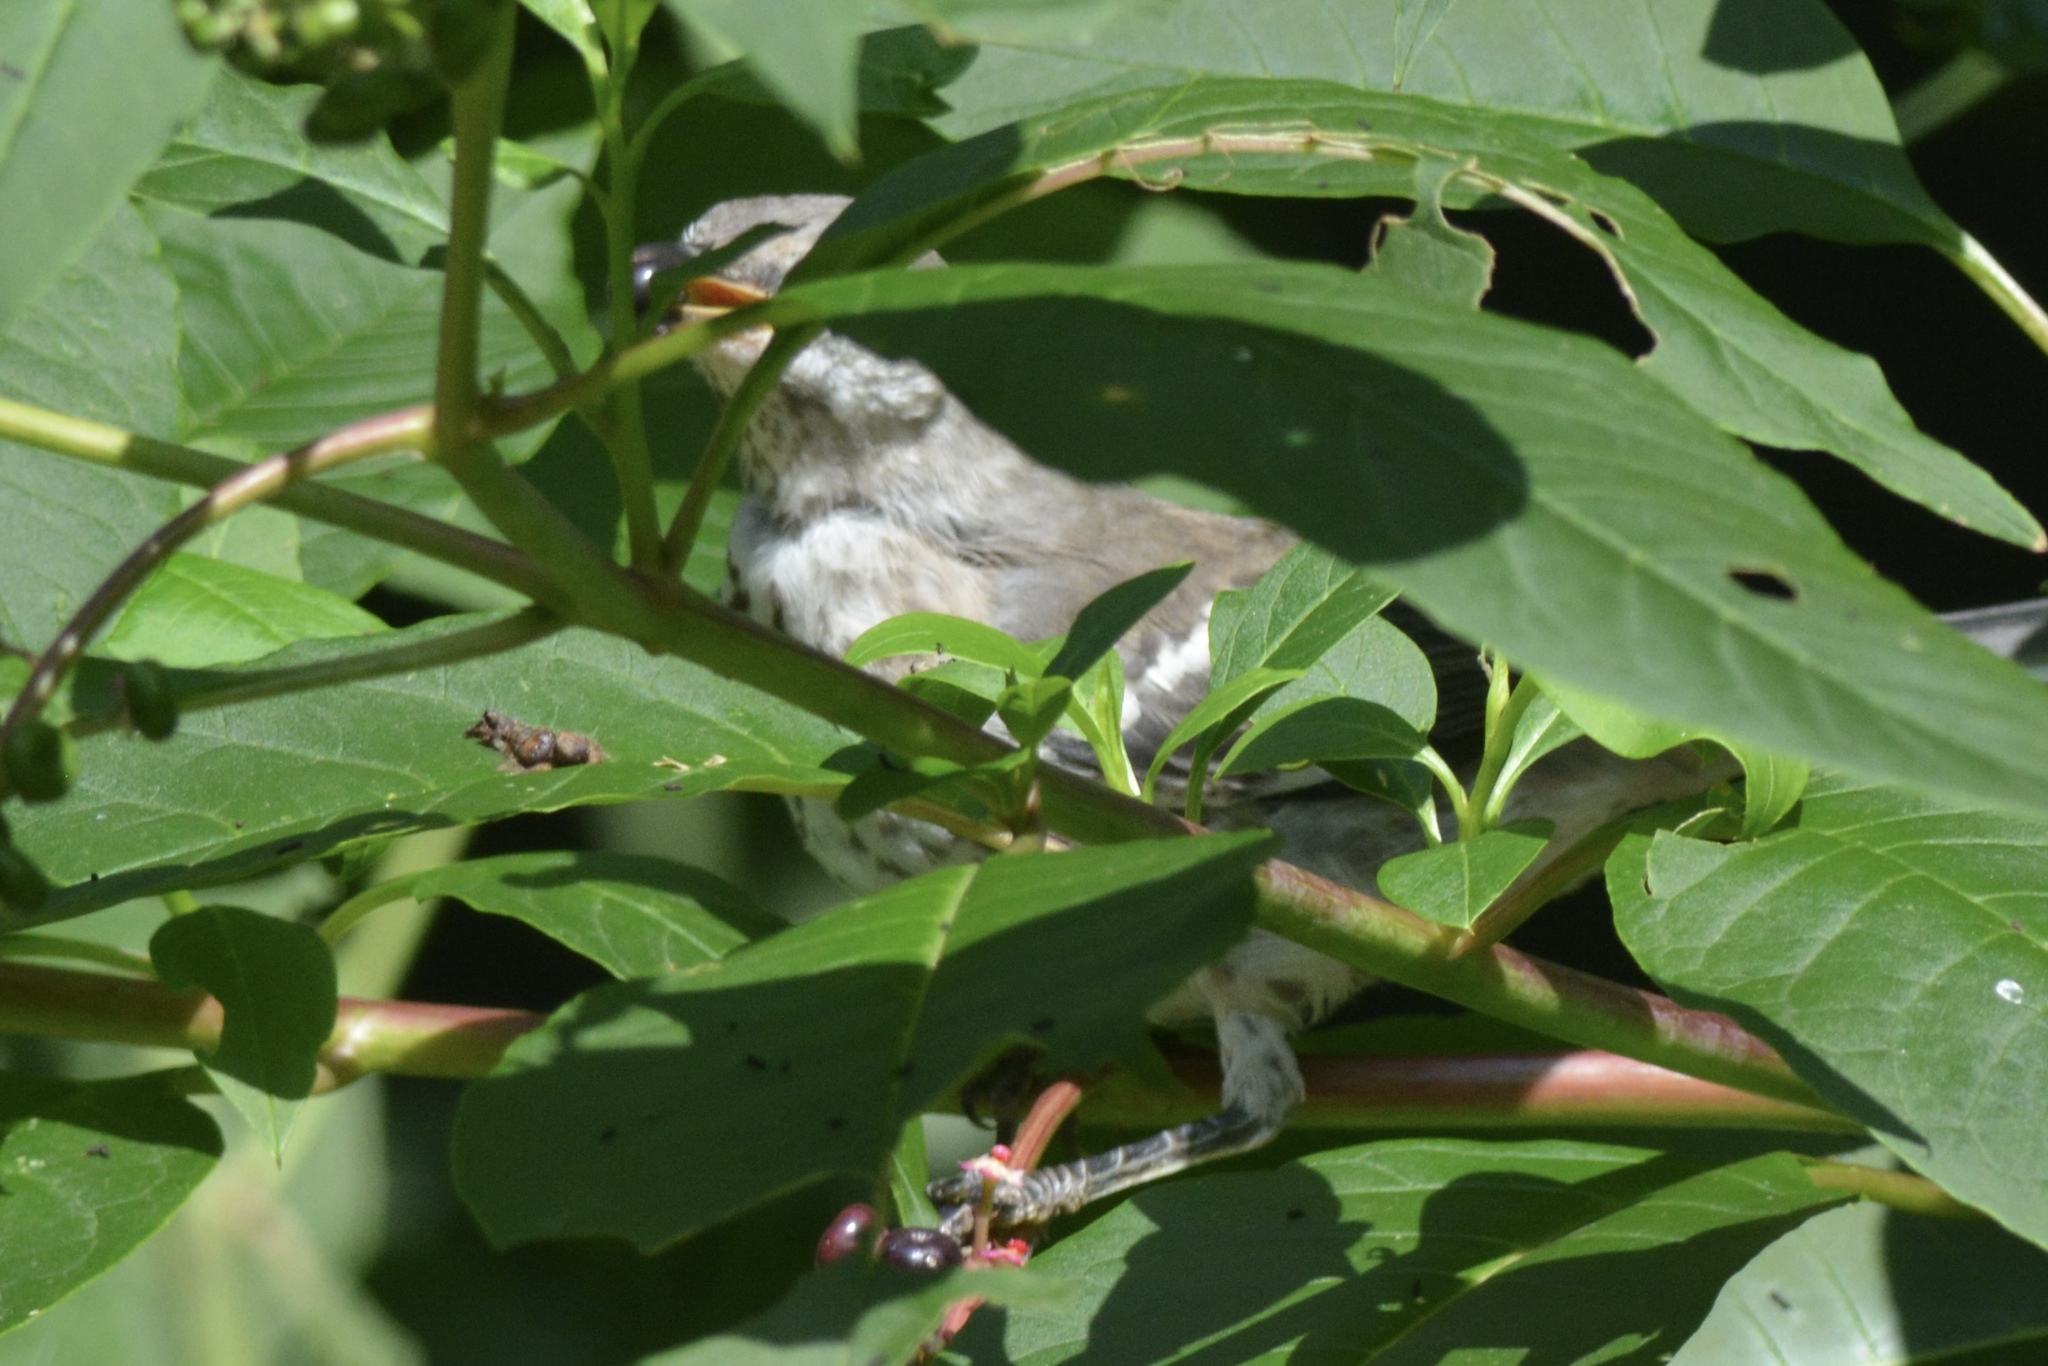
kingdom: Animalia
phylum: Chordata
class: Aves
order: Passeriformes
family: Mimidae
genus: Mimus
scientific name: Mimus polyglottos
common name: Northern mockingbird
